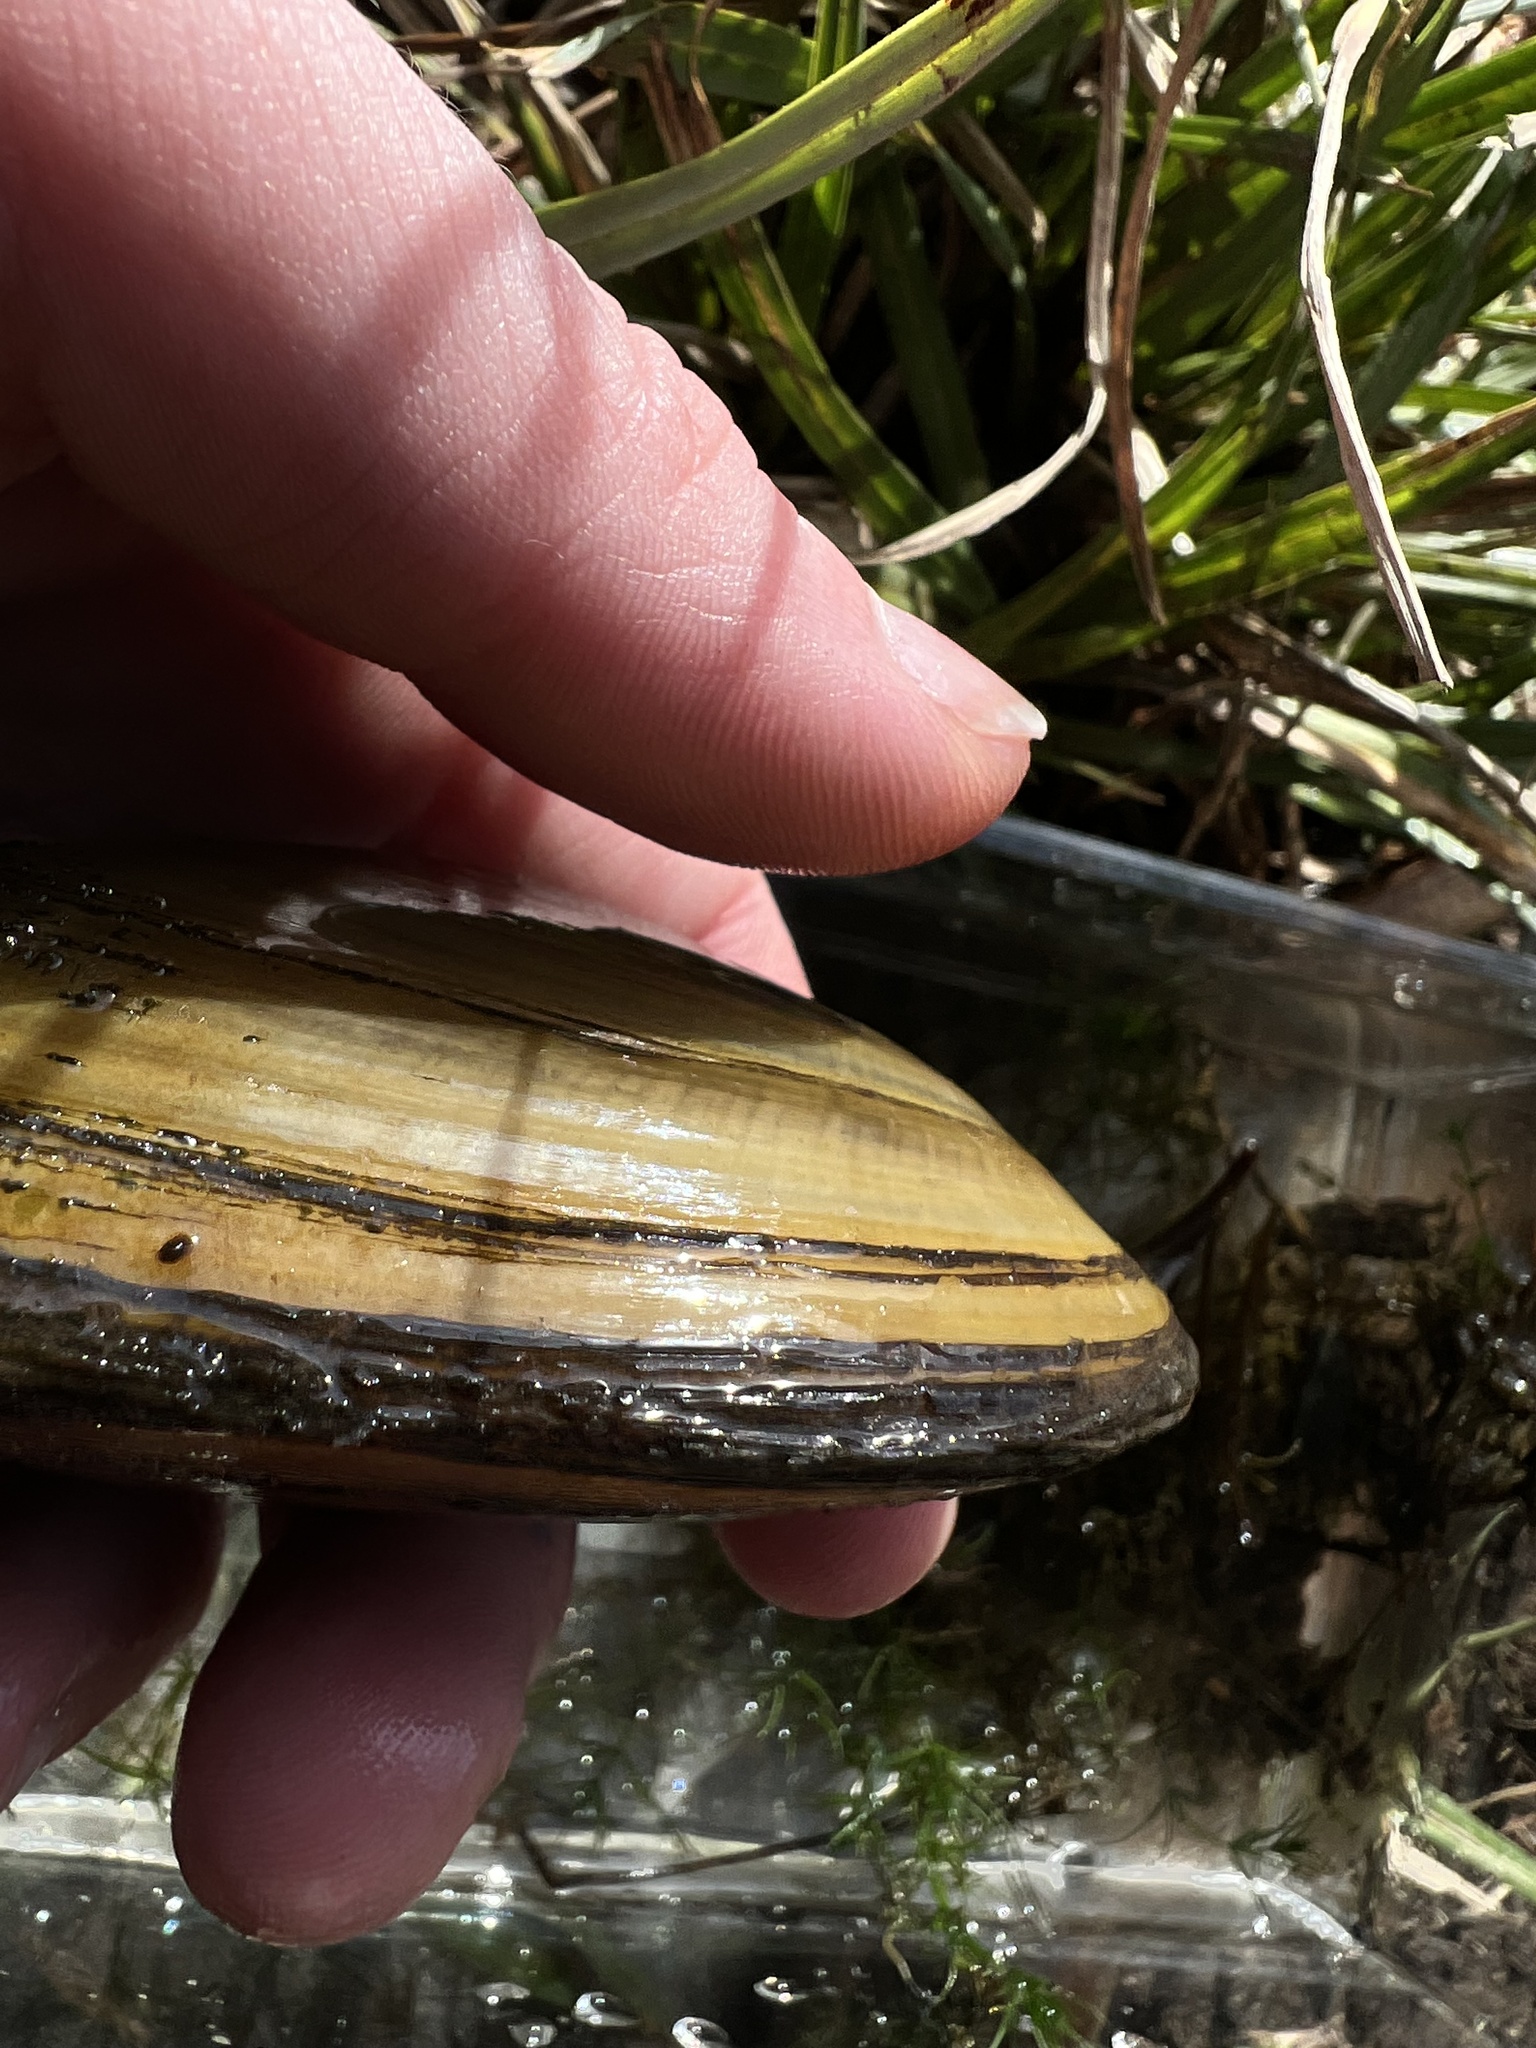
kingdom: Animalia
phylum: Mollusca
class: Bivalvia
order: Unionida
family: Unionidae
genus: Anodonta
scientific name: Anodonta kennerlyi
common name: Western floater
